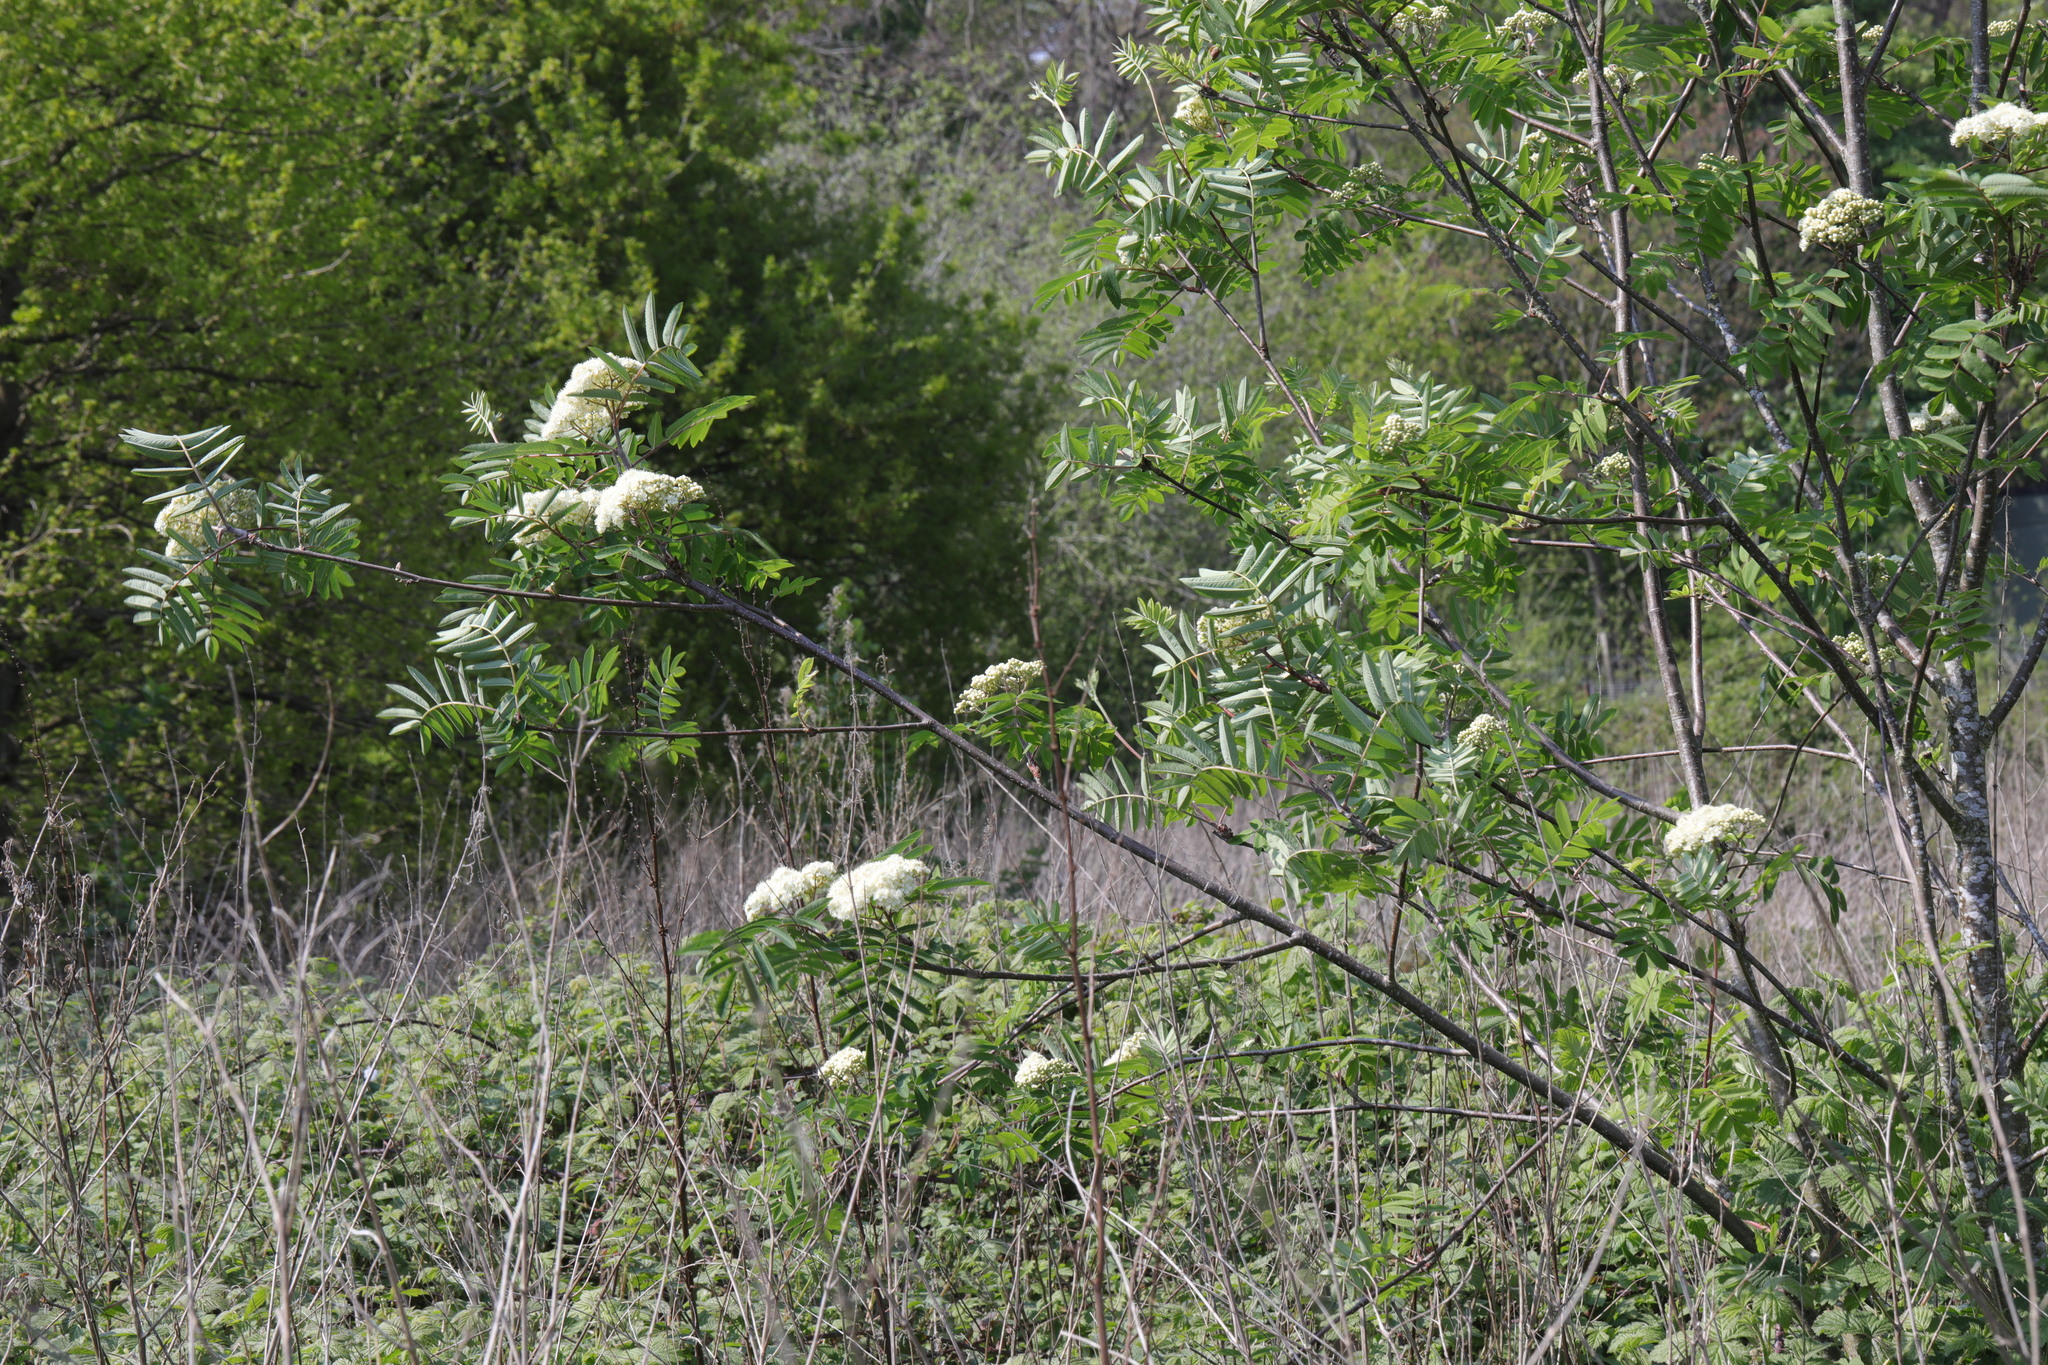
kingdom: Plantae
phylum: Tracheophyta
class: Magnoliopsida
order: Rosales
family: Rosaceae
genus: Sorbus
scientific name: Sorbus aucuparia
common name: Rowan
